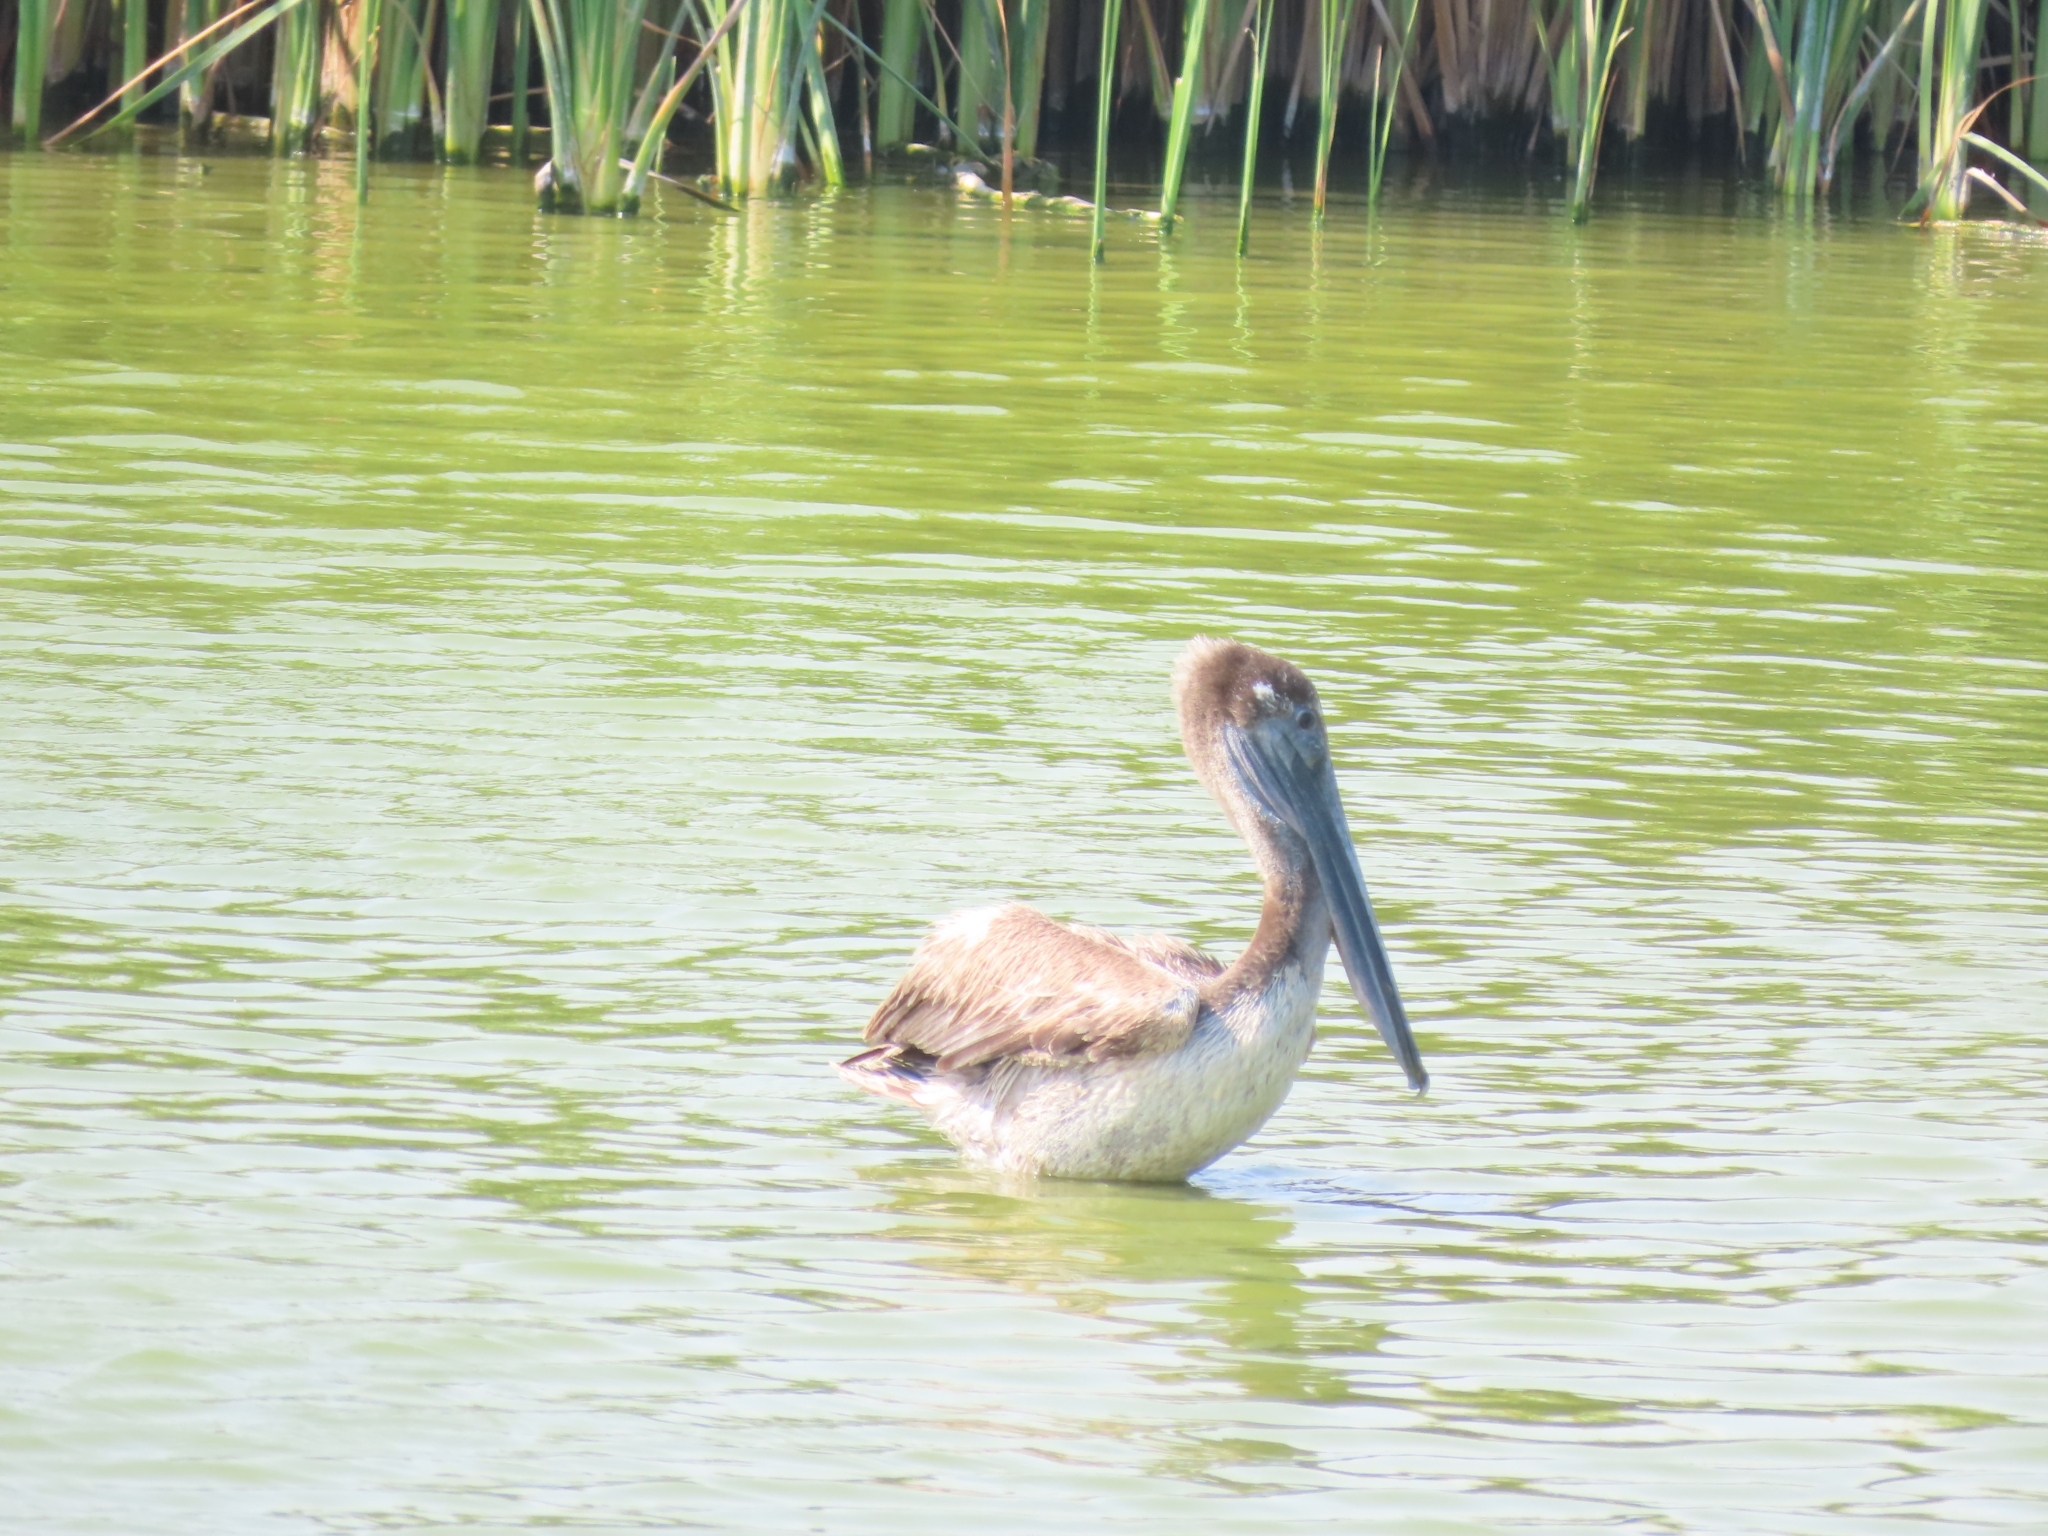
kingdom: Animalia
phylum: Chordata
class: Aves
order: Pelecaniformes
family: Pelecanidae
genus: Pelecanus
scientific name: Pelecanus occidentalis
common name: Brown pelican
